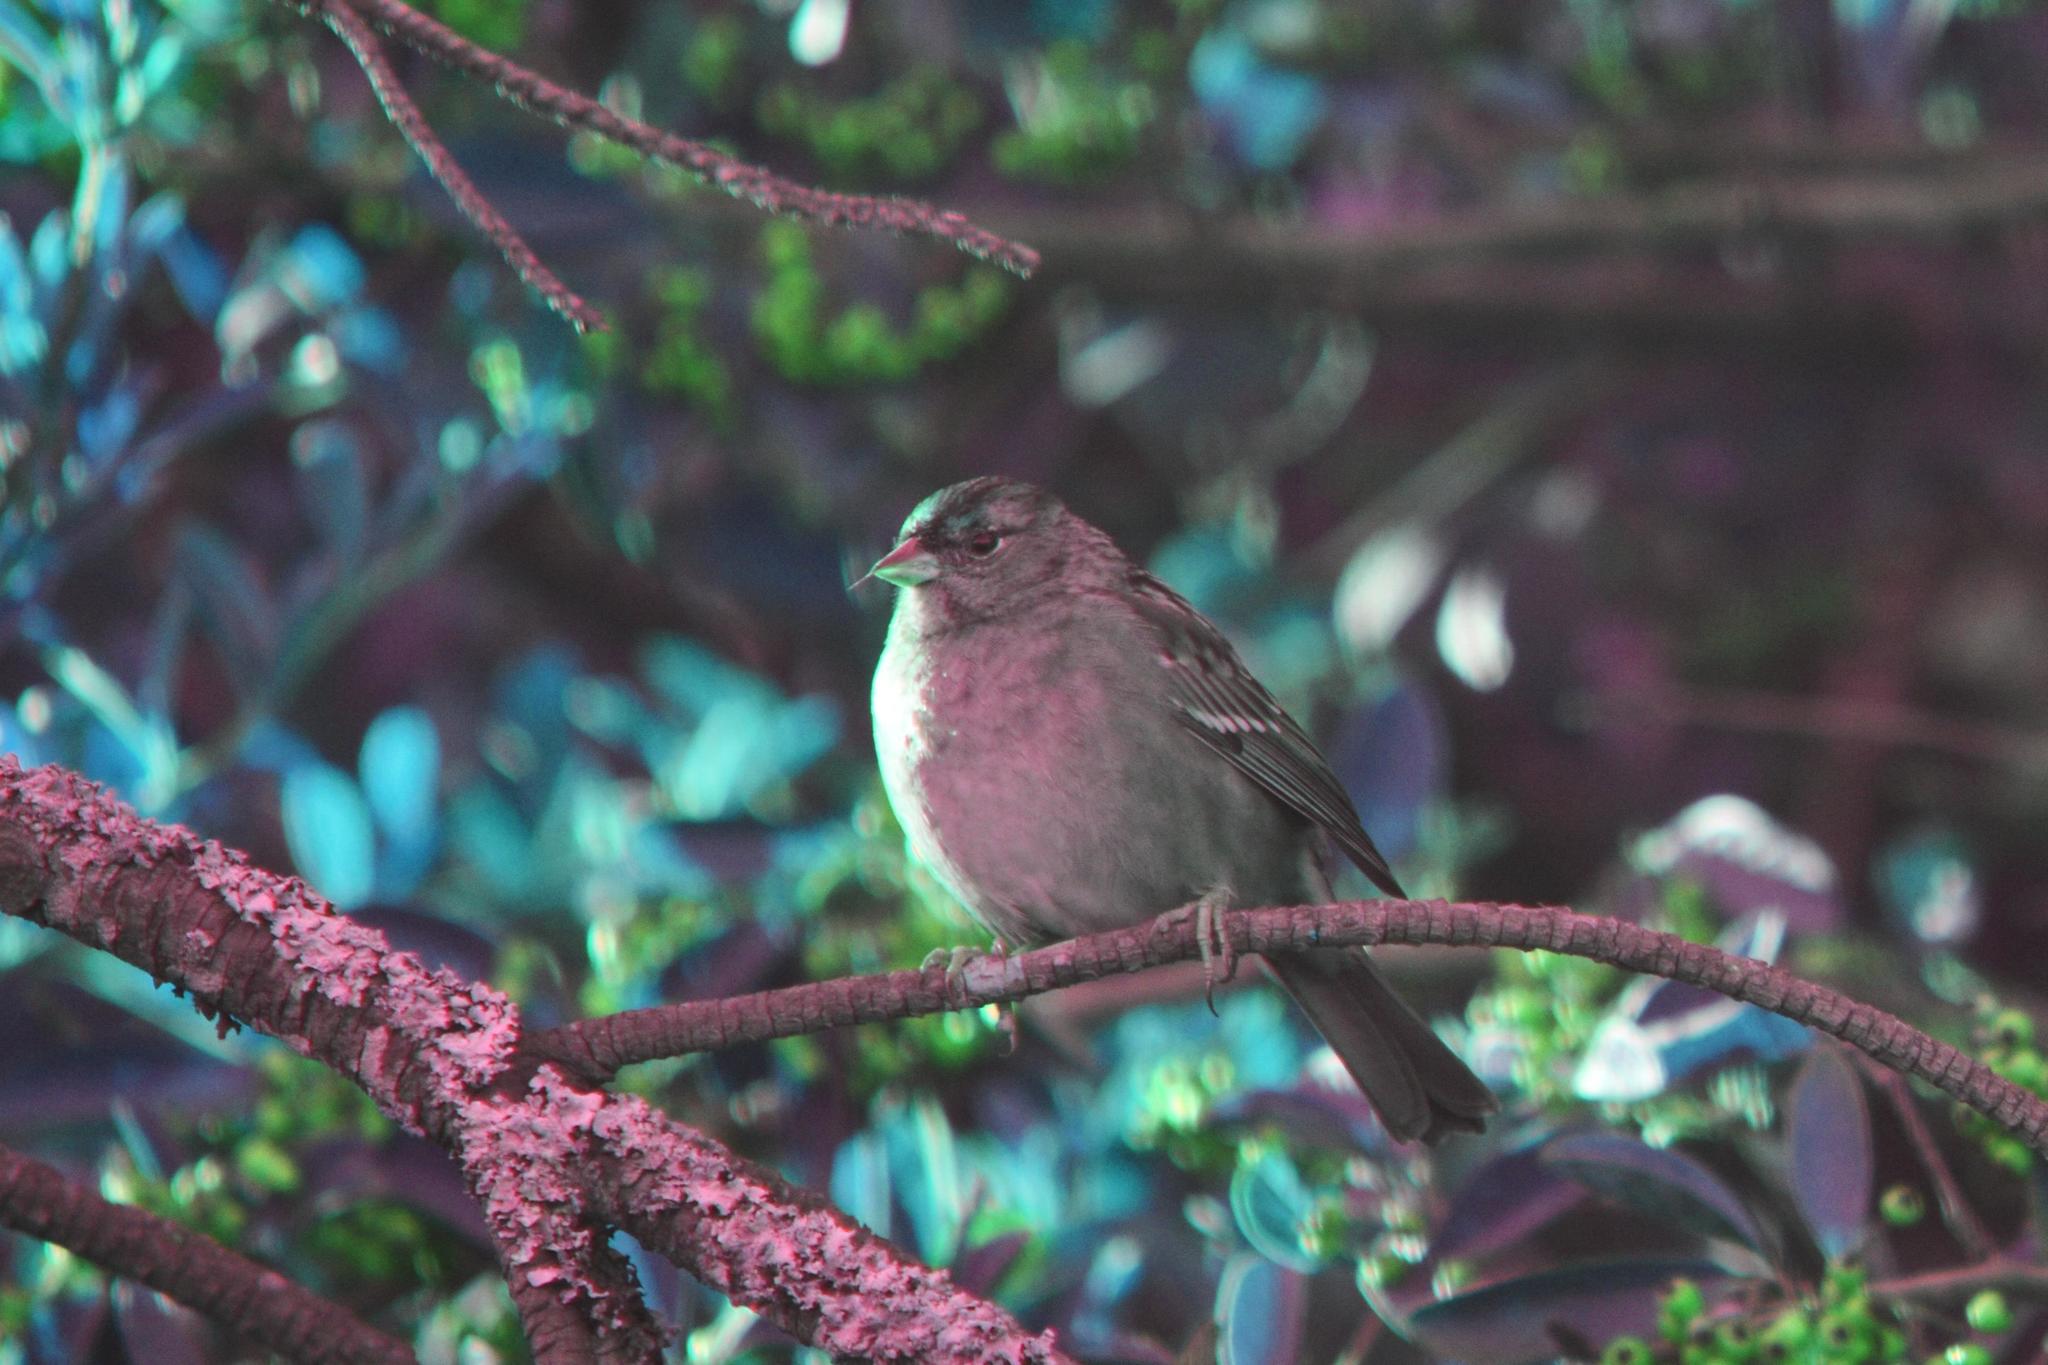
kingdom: Animalia
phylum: Chordata
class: Aves
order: Passeriformes
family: Passerellidae
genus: Zonotrichia
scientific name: Zonotrichia atricapilla
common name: Golden-crowned sparrow
